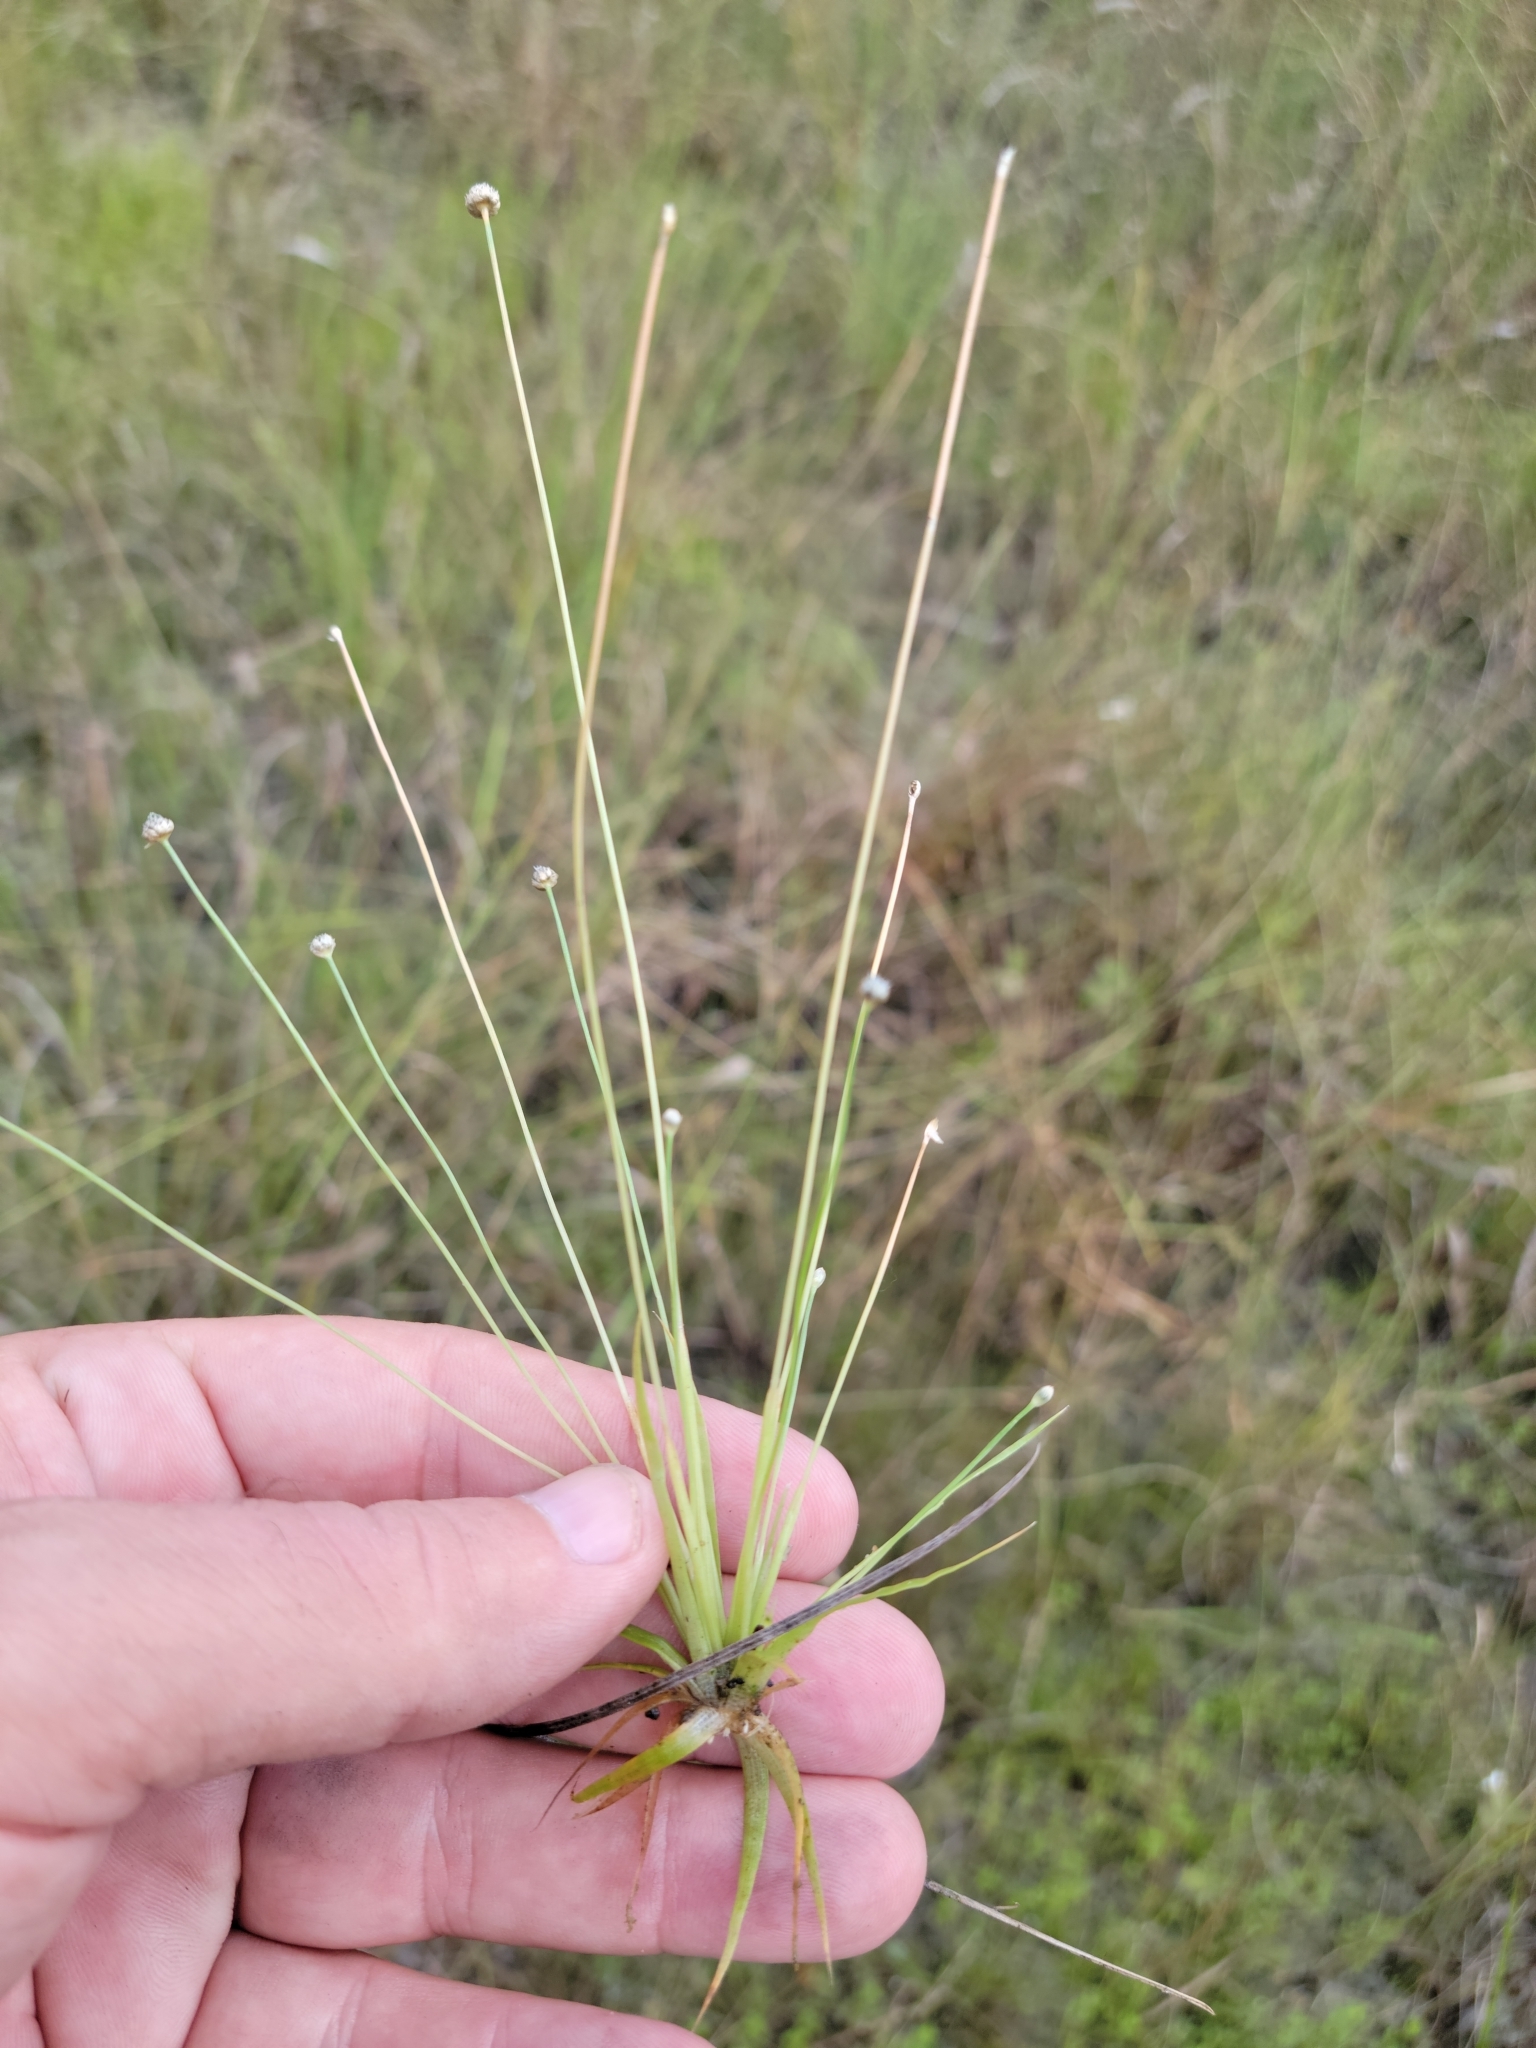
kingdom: Plantae
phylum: Tracheophyta
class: Liliopsida
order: Poales
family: Eriocaulaceae
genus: Eriocaulon
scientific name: Eriocaulon ravenelii
